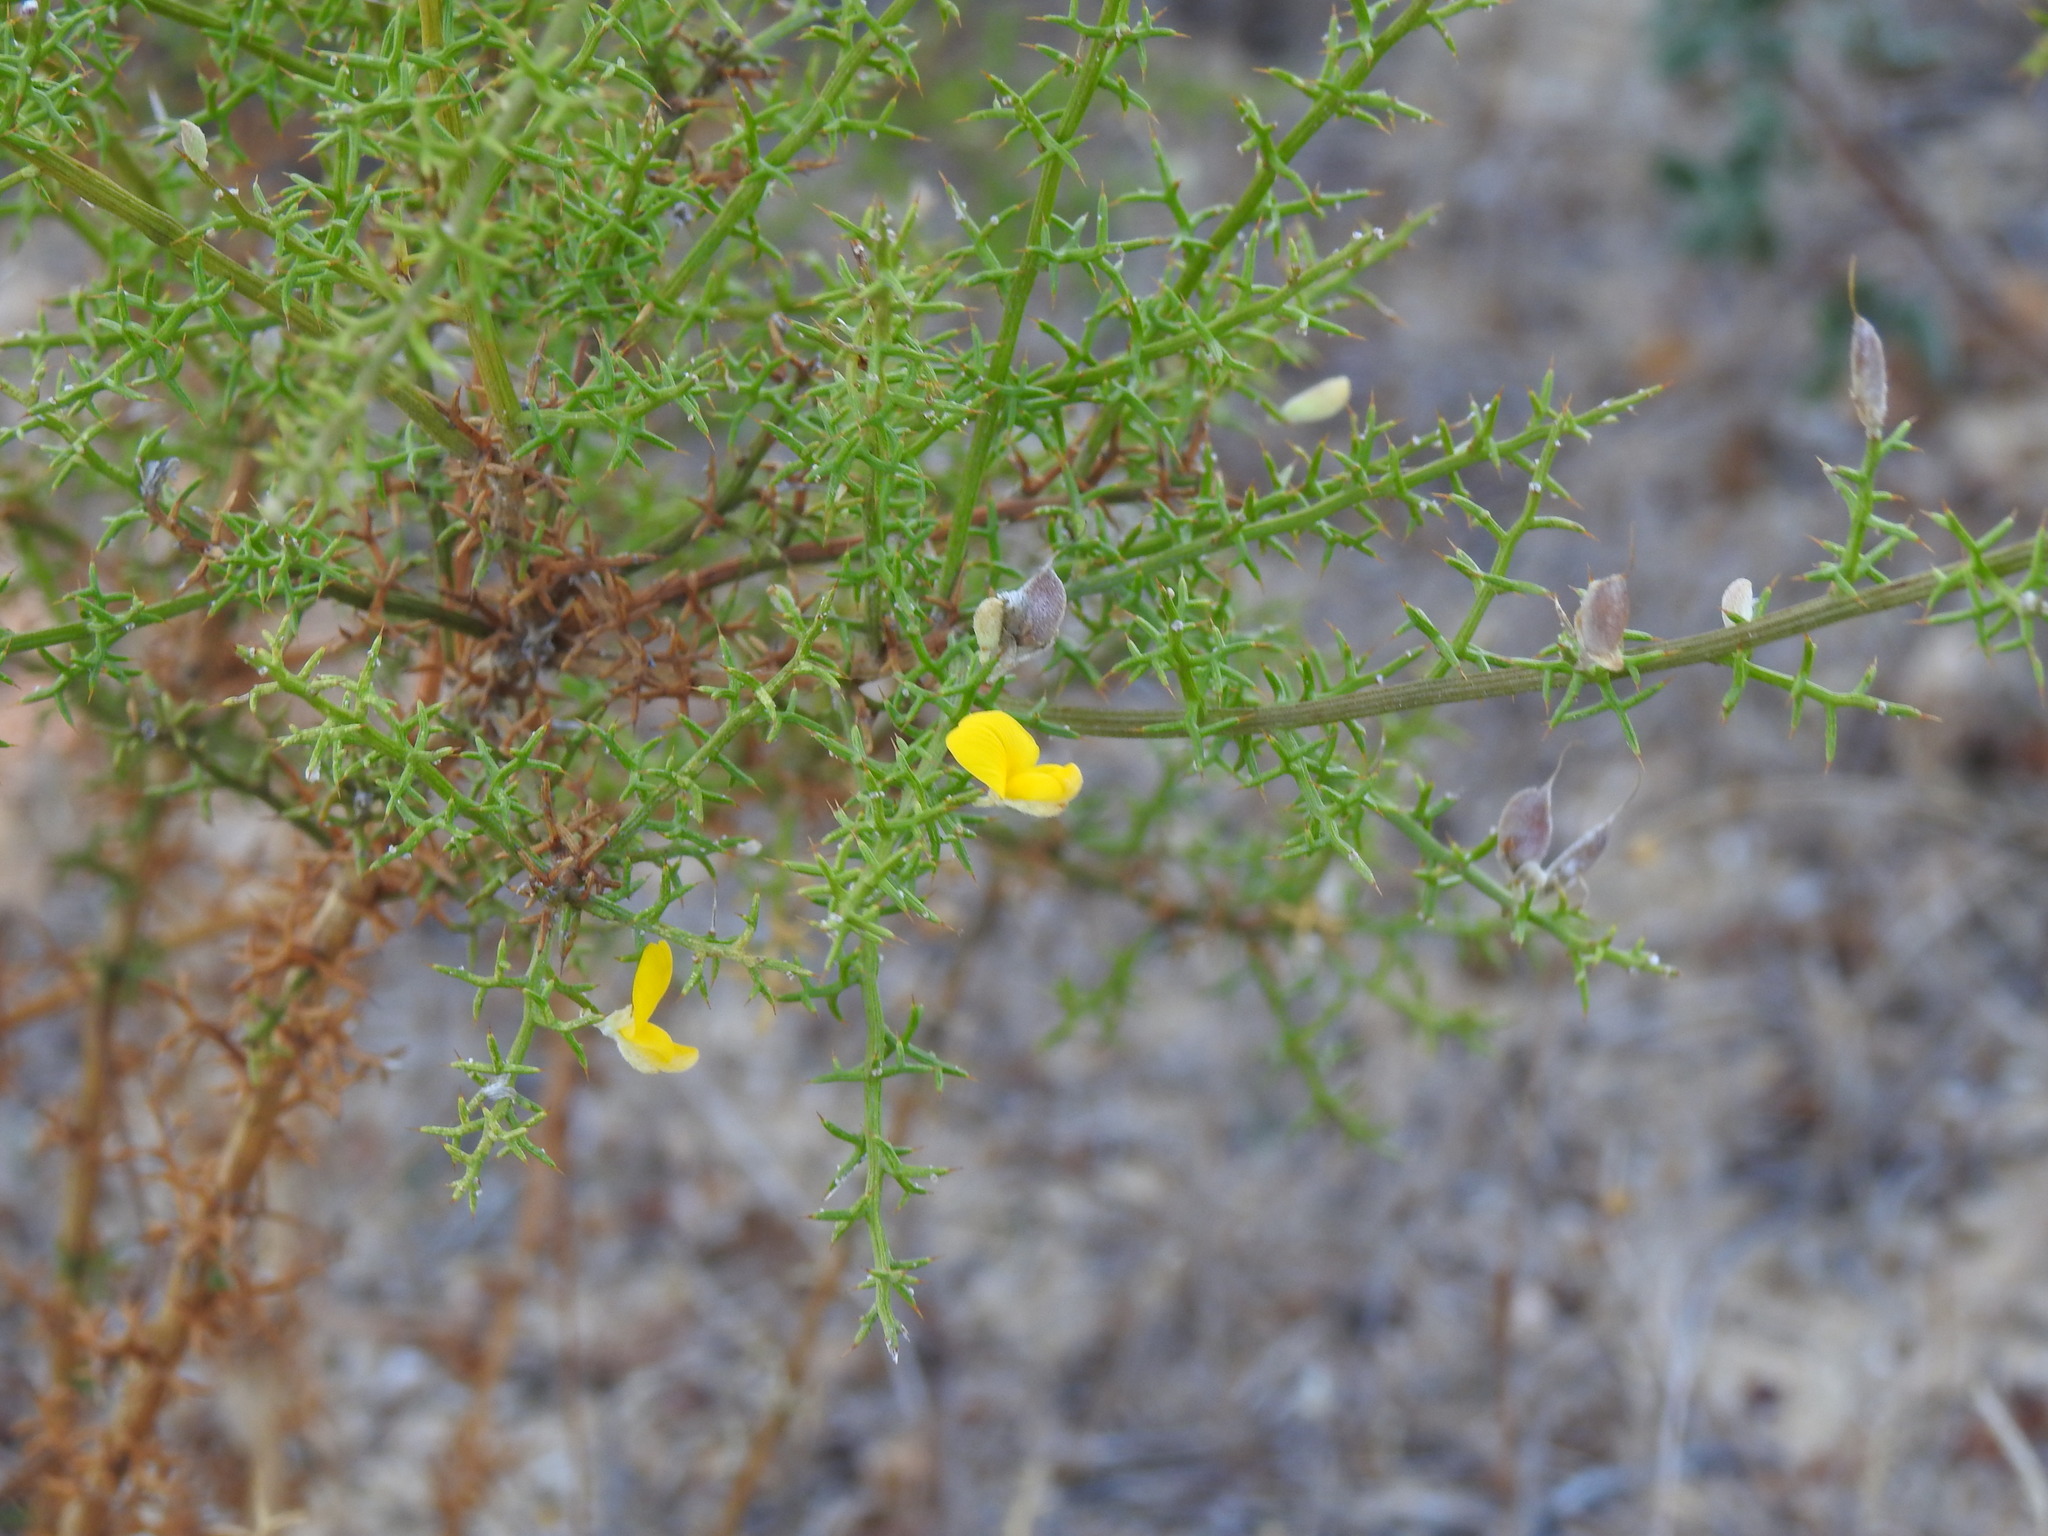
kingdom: Plantae
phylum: Tracheophyta
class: Magnoliopsida
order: Fabales
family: Fabaceae
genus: Stauracanthus
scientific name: Stauracanthus boivinii
